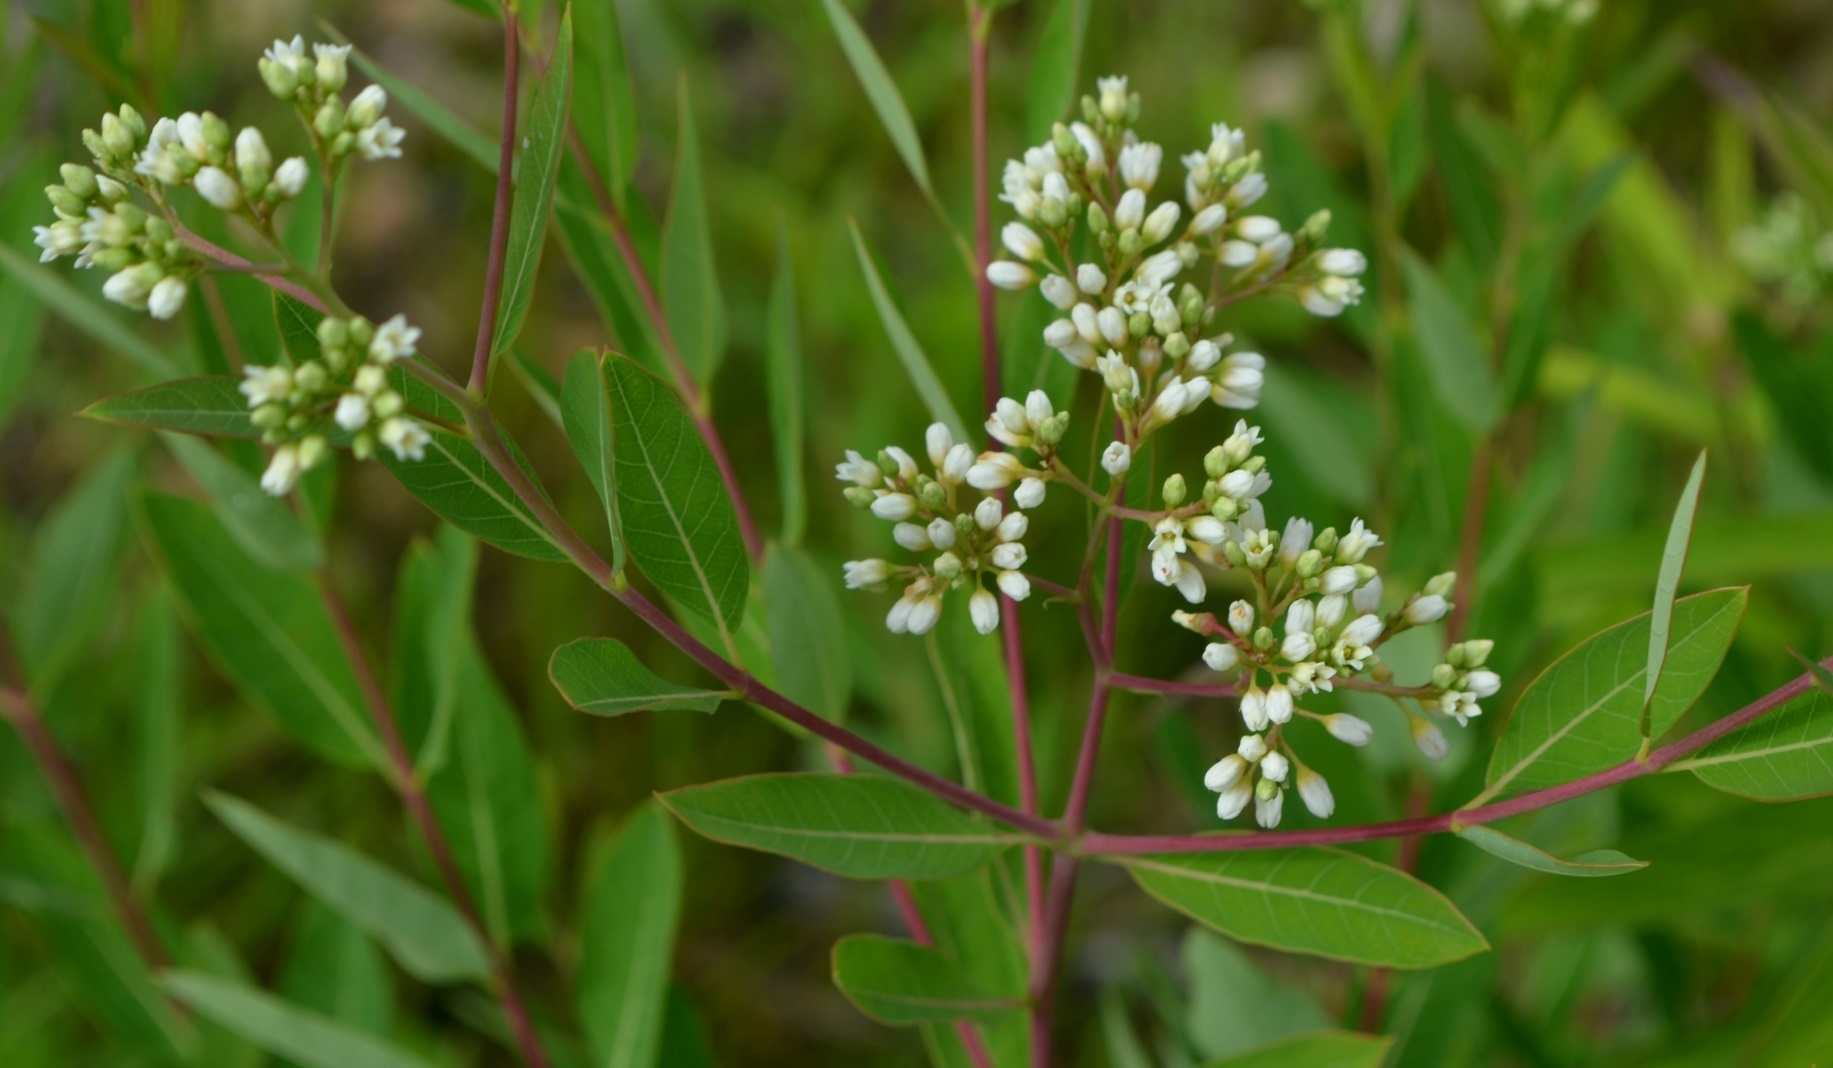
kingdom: Plantae
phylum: Tracheophyta
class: Magnoliopsida
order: Gentianales
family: Apocynaceae
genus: Apocynum
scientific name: Apocynum cannabinum
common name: Hemp dogbane
